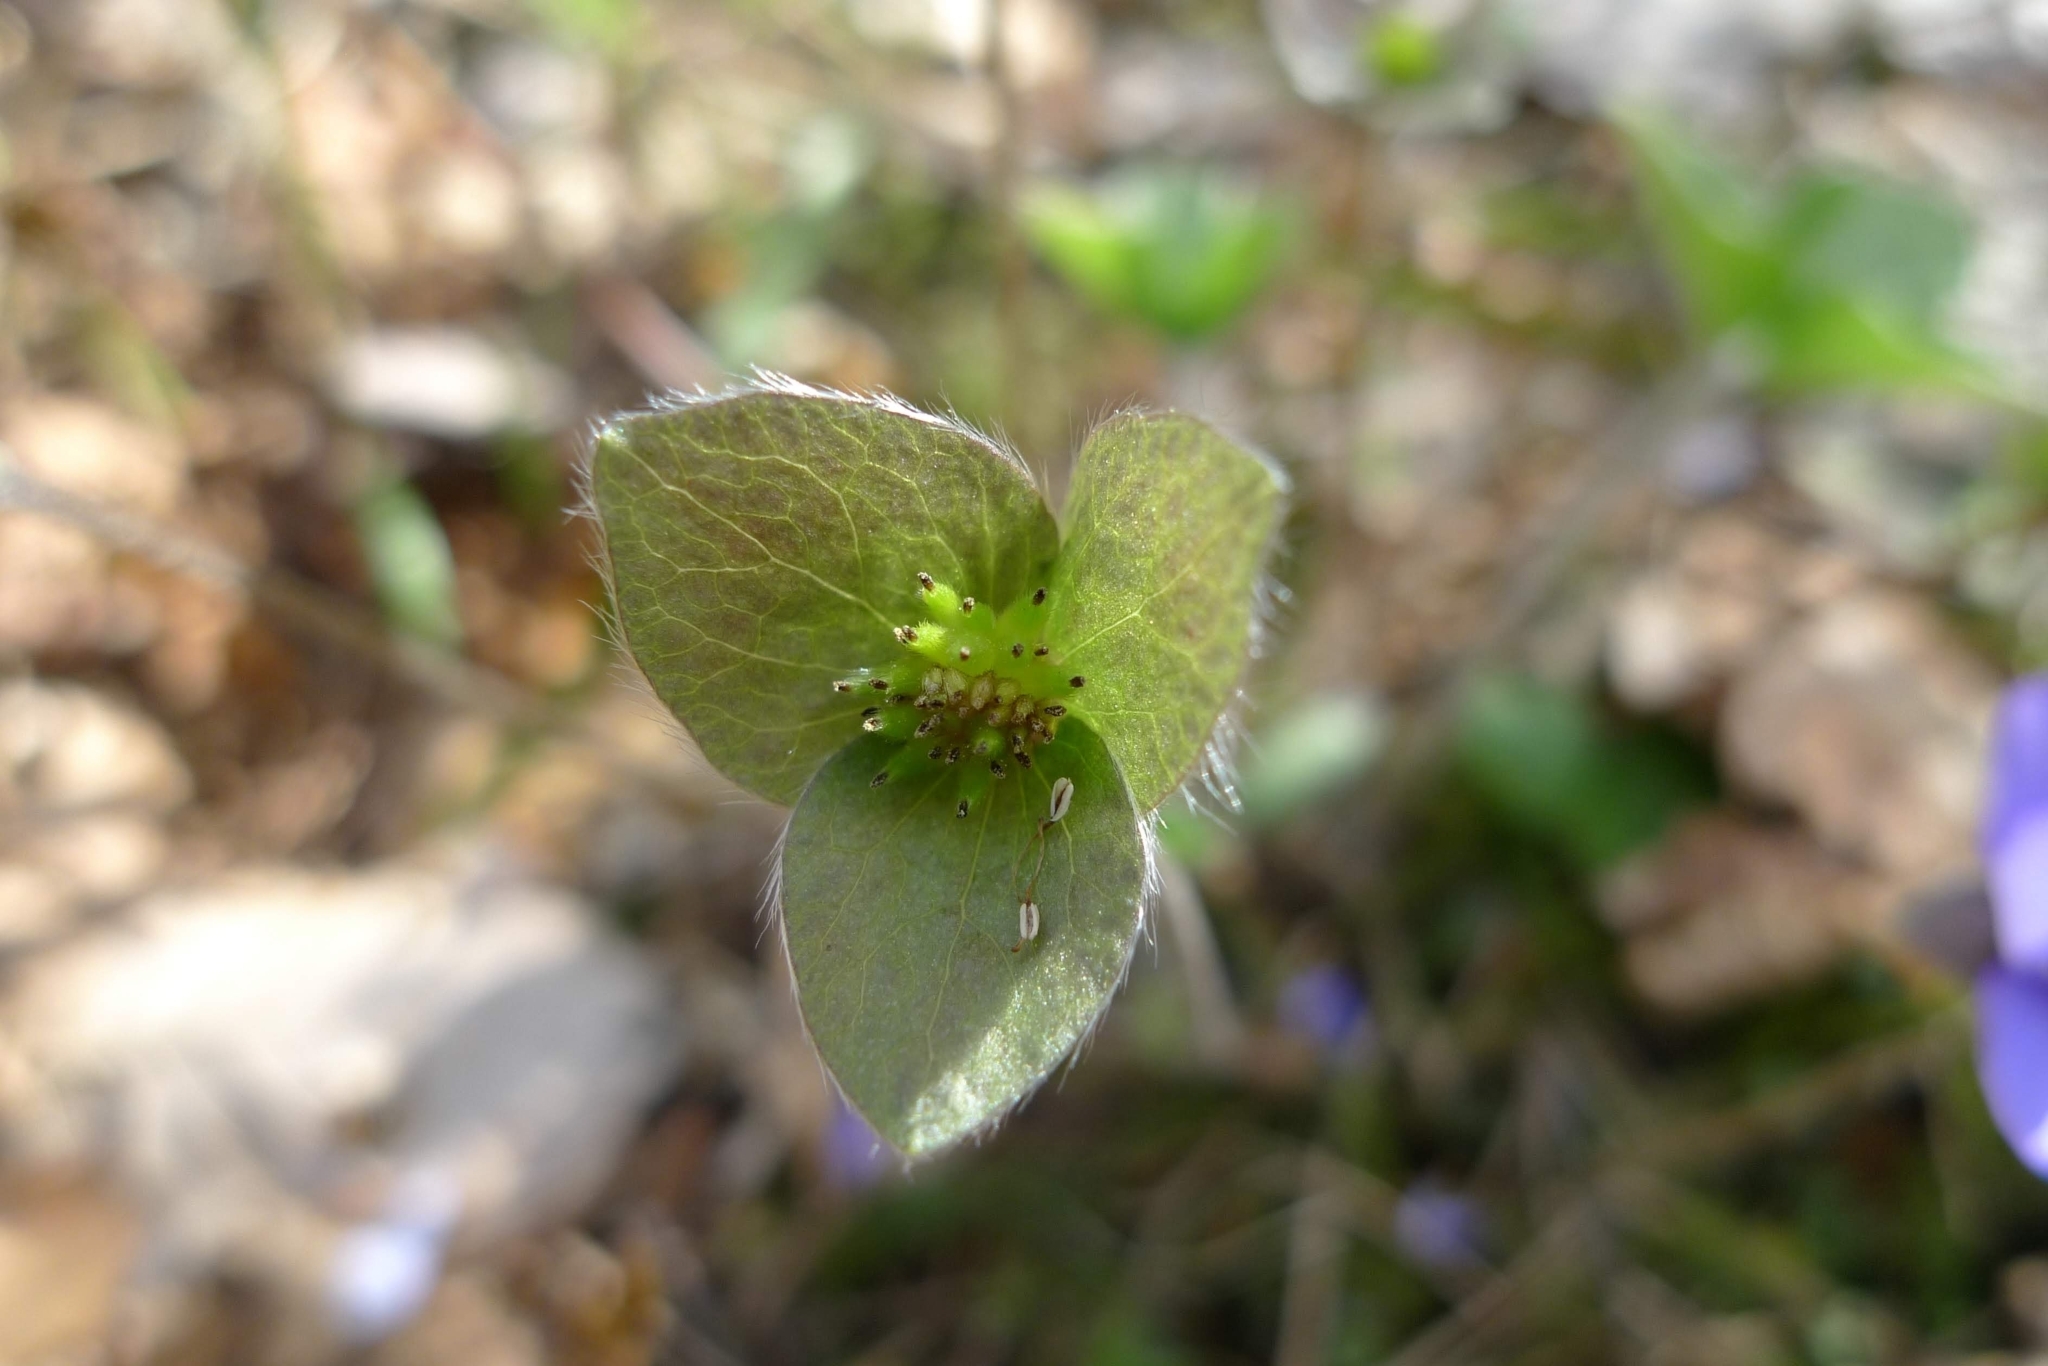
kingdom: Plantae
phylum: Tracheophyta
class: Magnoliopsida
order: Ranunculales
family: Ranunculaceae
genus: Hepatica
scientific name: Hepatica nobilis
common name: Liverleaf
